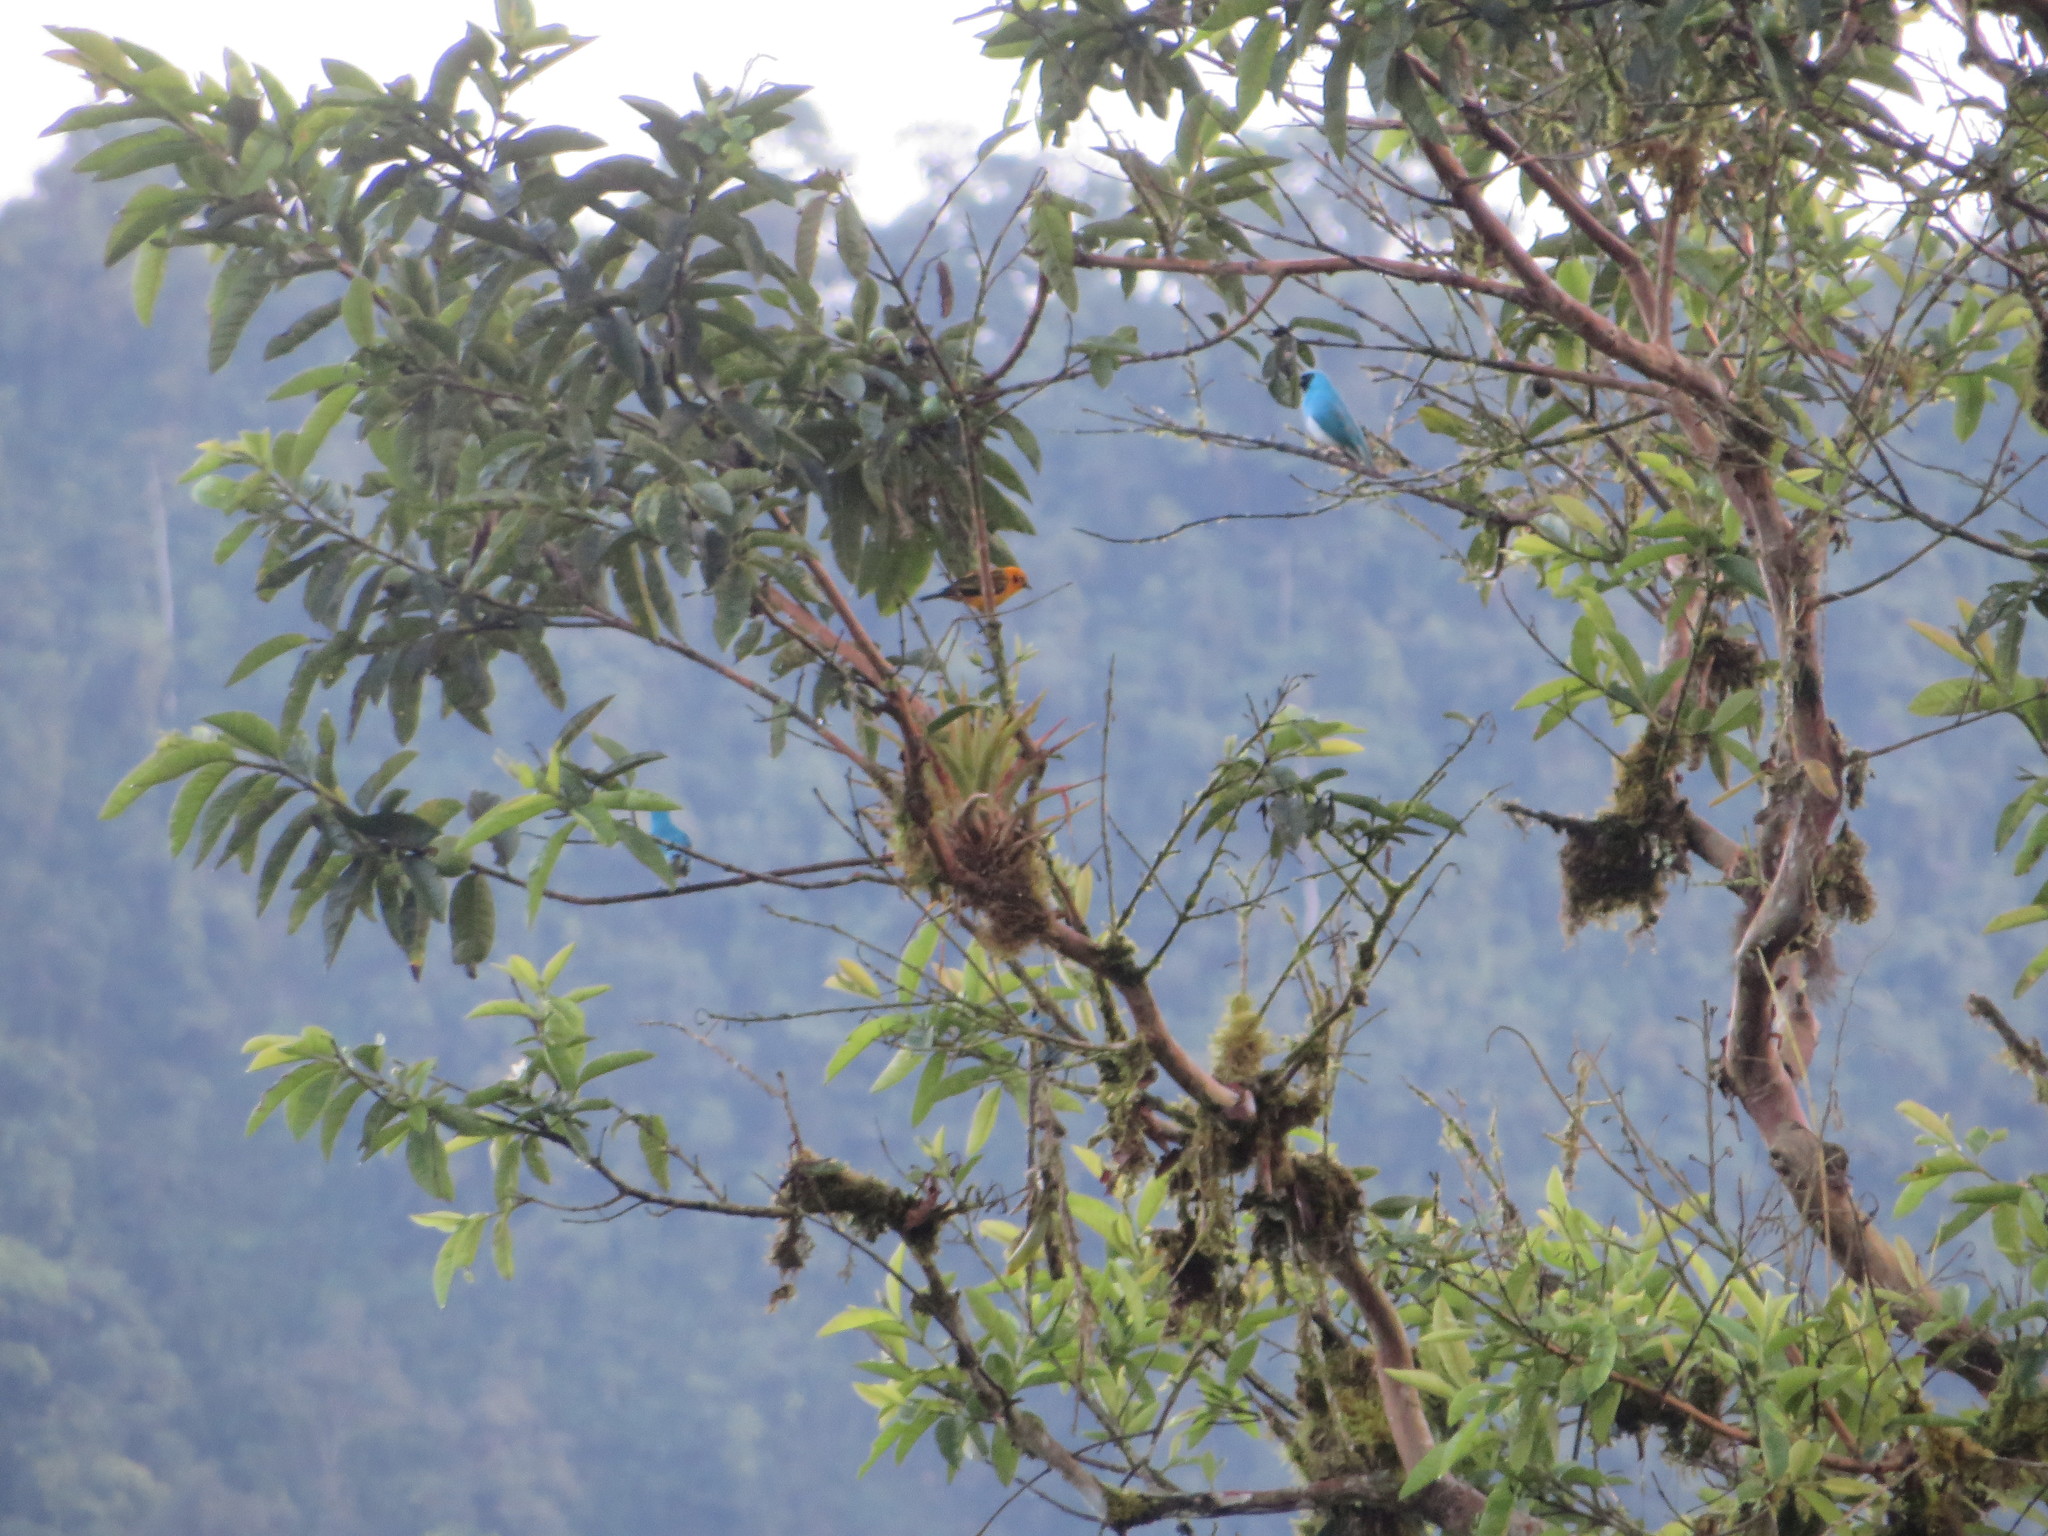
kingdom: Animalia
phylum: Chordata
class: Aves
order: Passeriformes
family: Thraupidae
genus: Tersina
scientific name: Tersina viridis
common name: Swallow tanager
